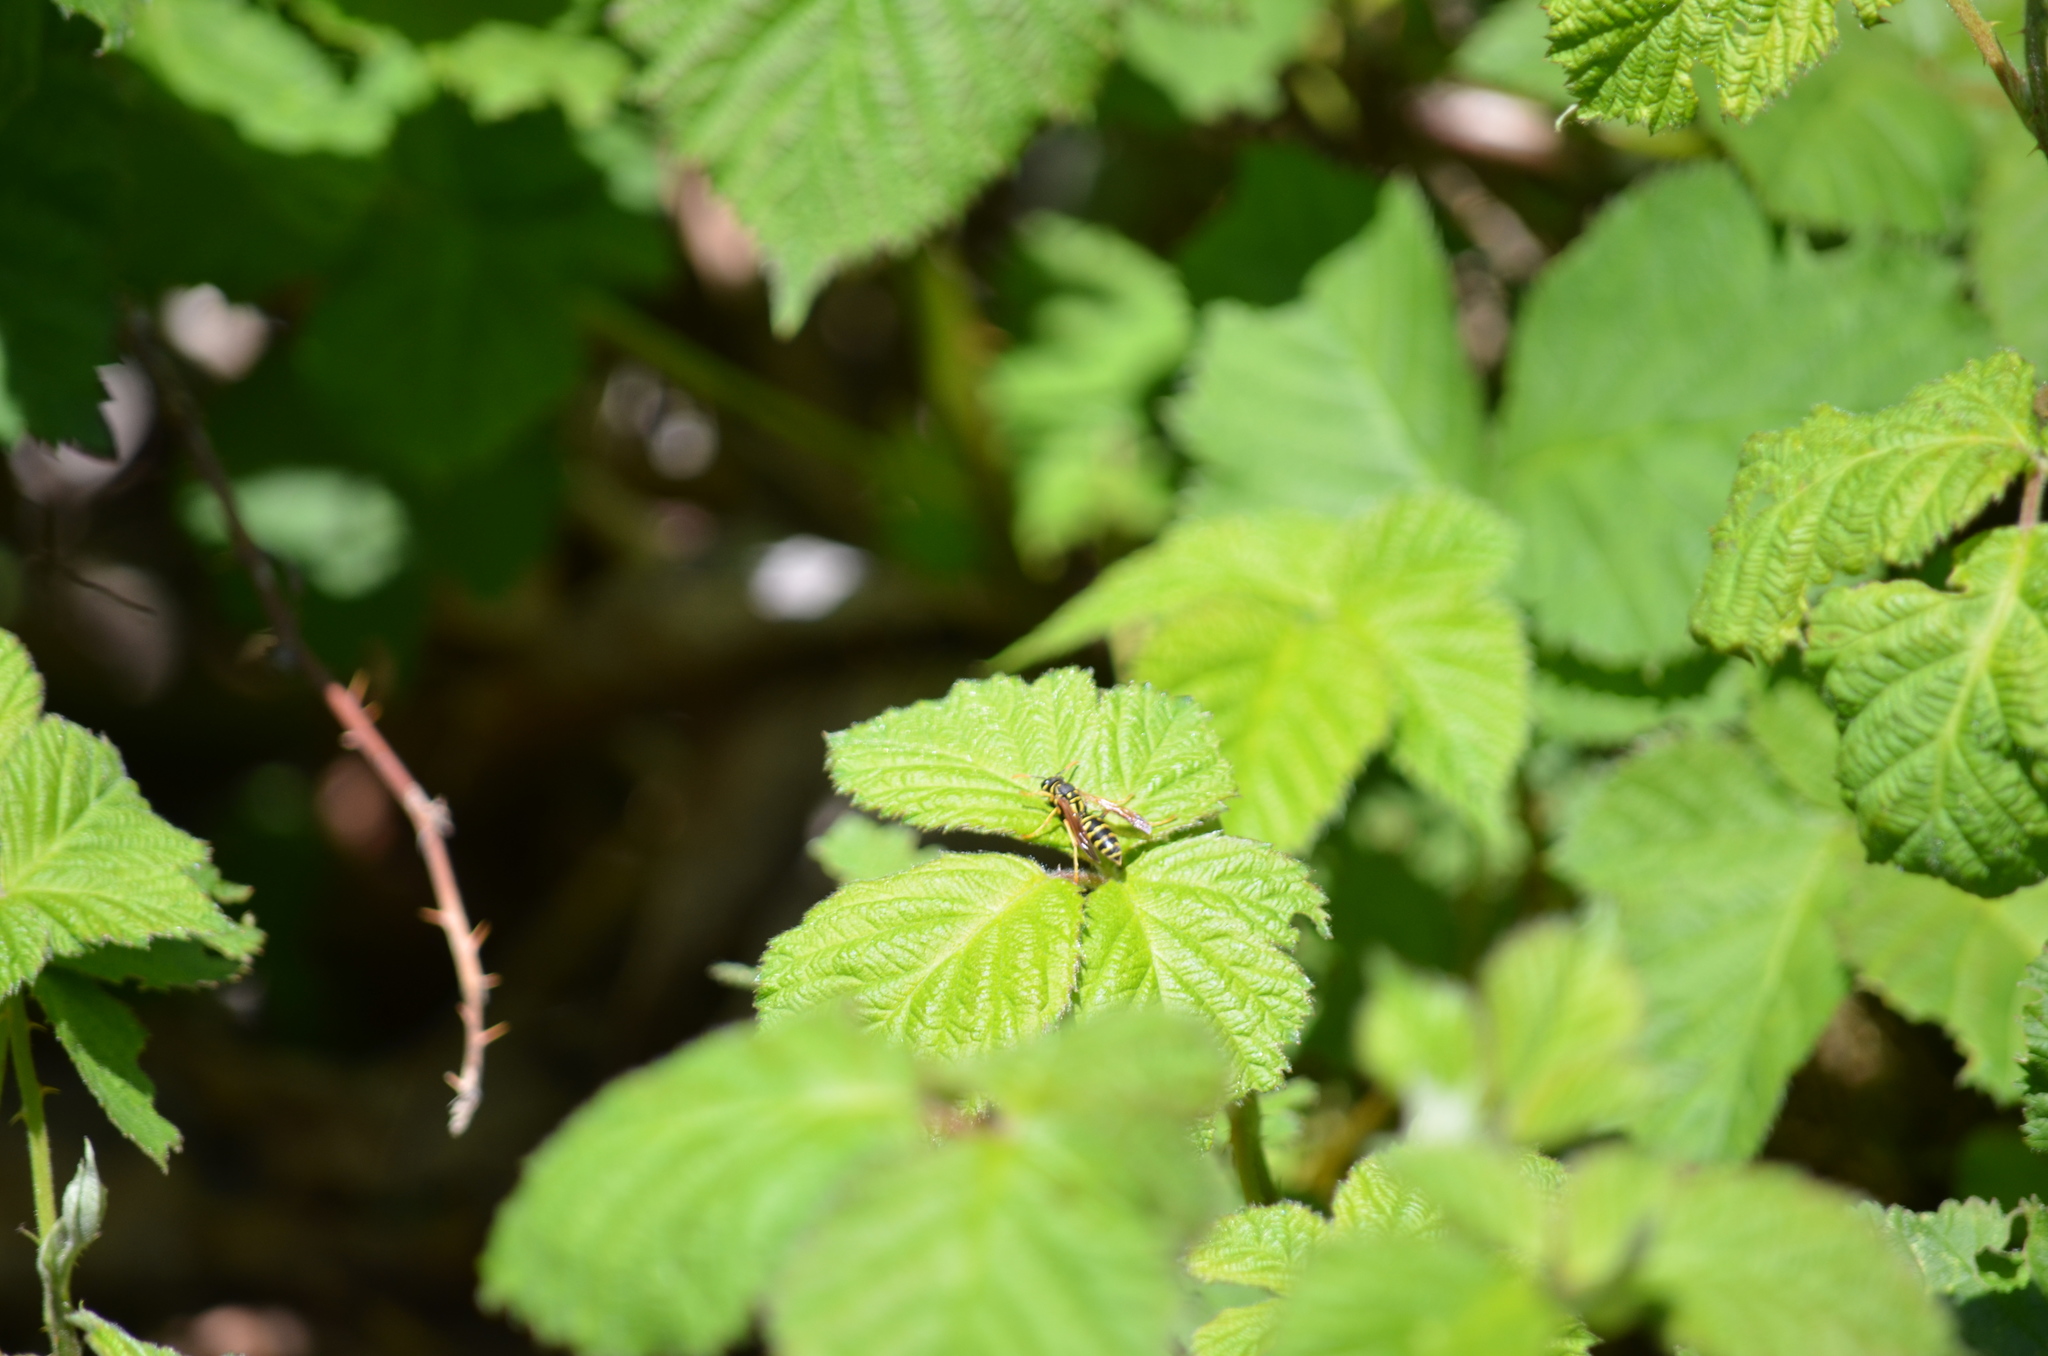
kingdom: Animalia
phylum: Arthropoda
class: Insecta
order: Hymenoptera
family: Eumenidae
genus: Polistes
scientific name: Polistes dominula
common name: Paper wasp
